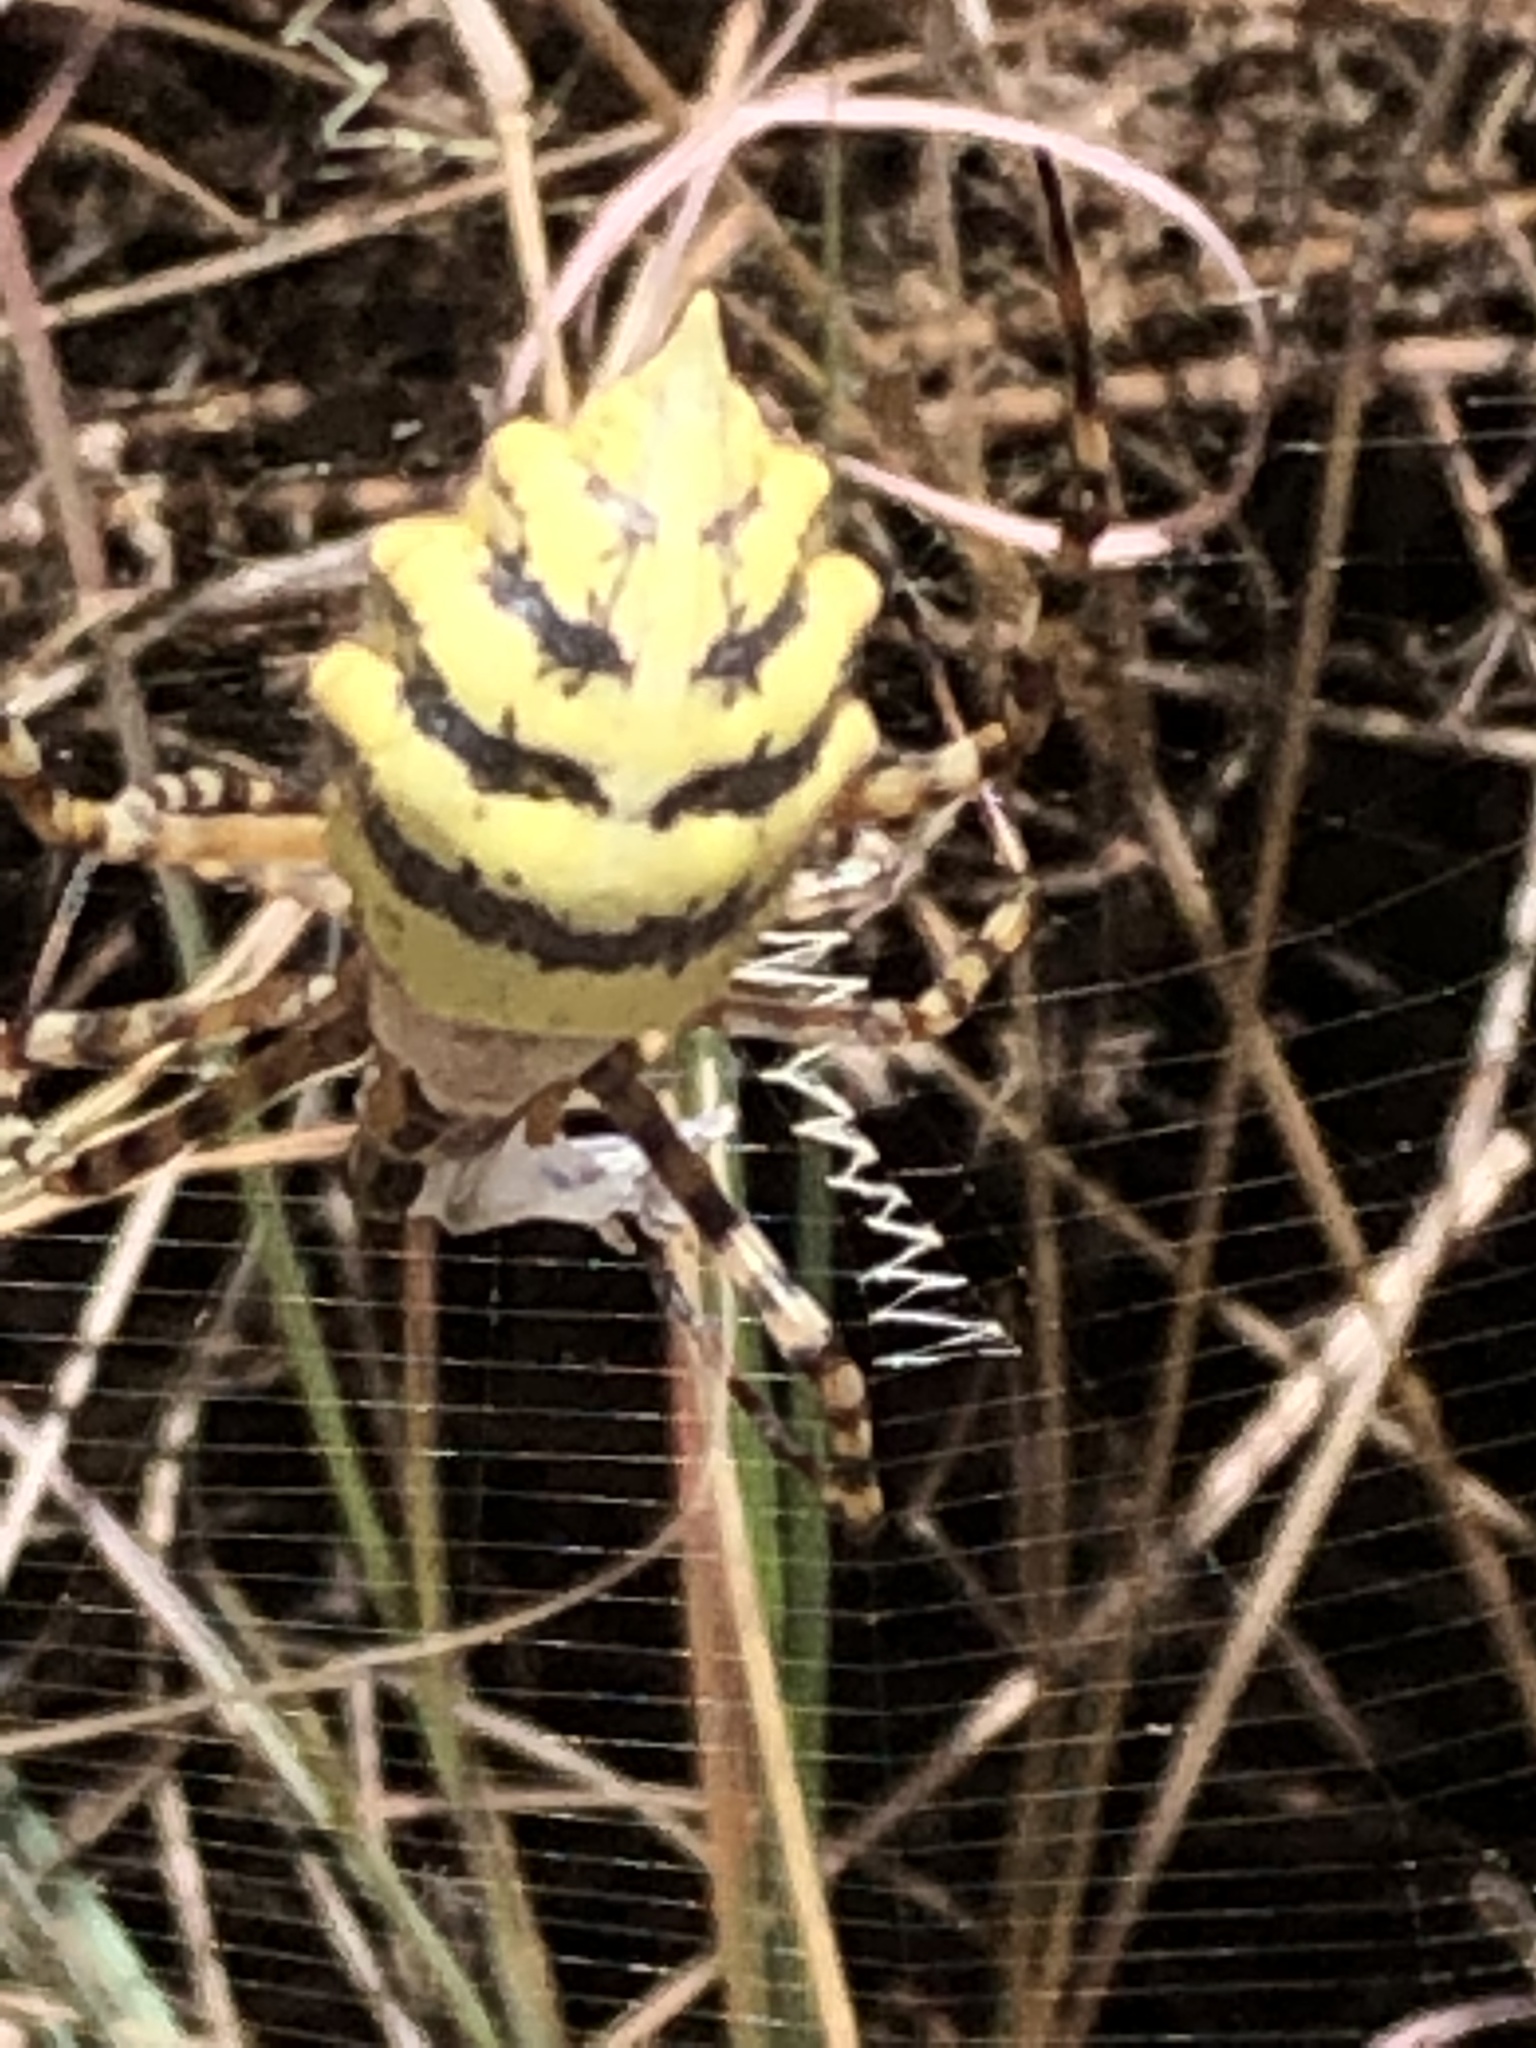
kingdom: Animalia
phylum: Arthropoda
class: Arachnida
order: Araneae
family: Araneidae
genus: Argiope
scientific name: Argiope australis
